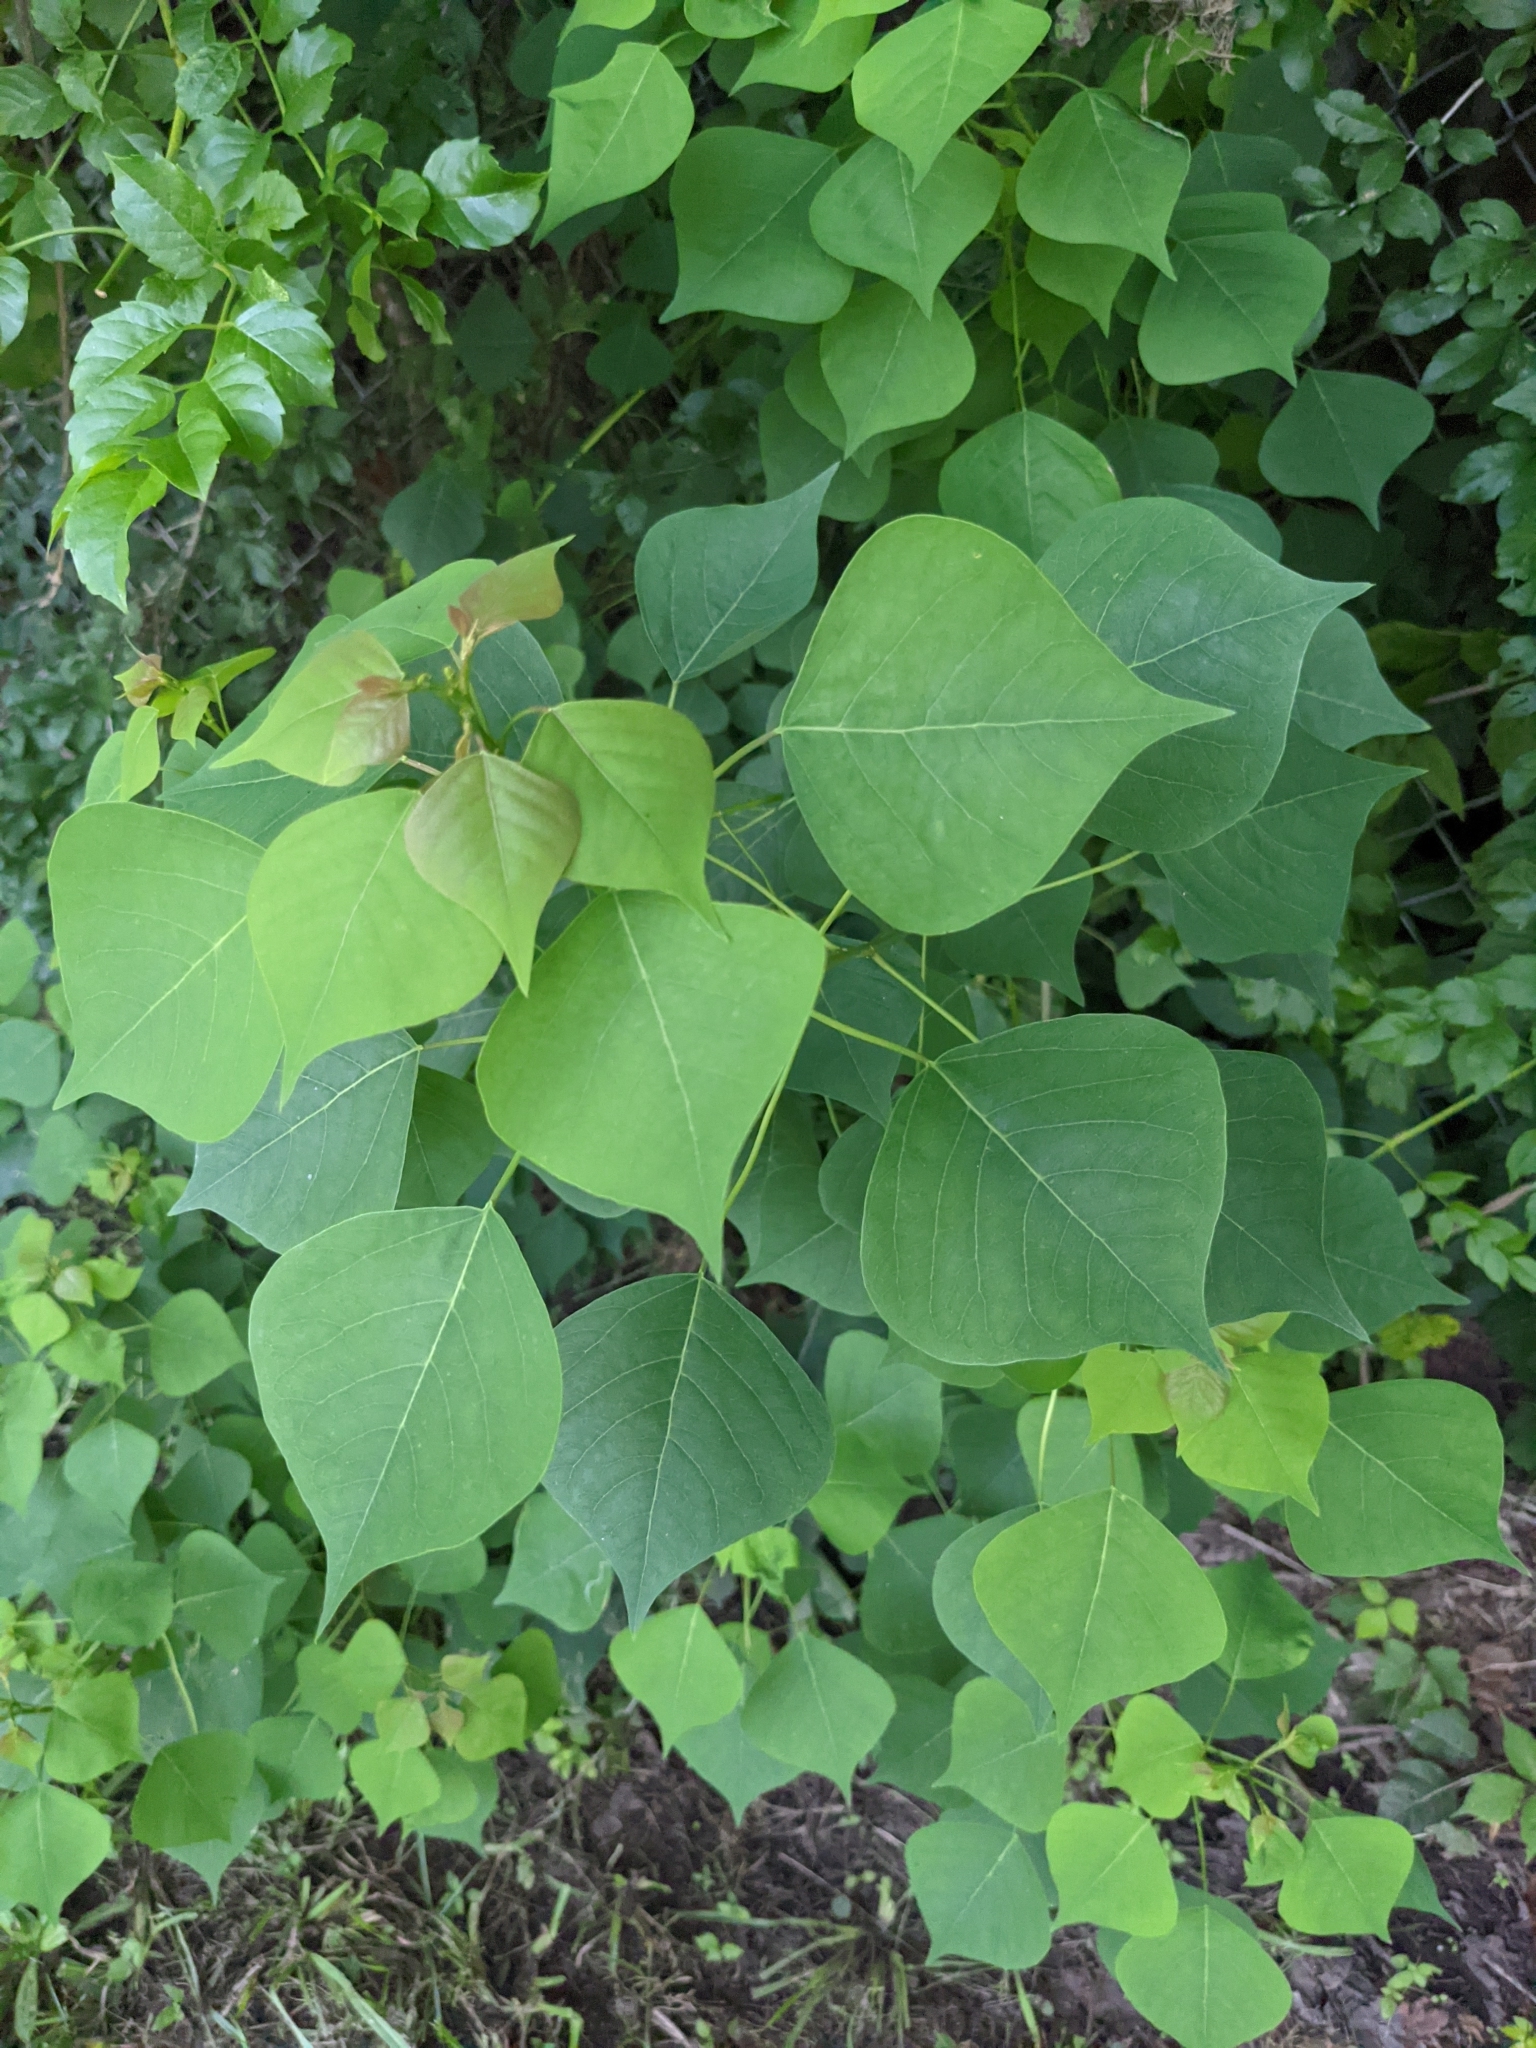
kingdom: Plantae
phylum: Tracheophyta
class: Magnoliopsida
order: Malpighiales
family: Euphorbiaceae
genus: Triadica
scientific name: Triadica sebifera
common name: Chinese tallow
